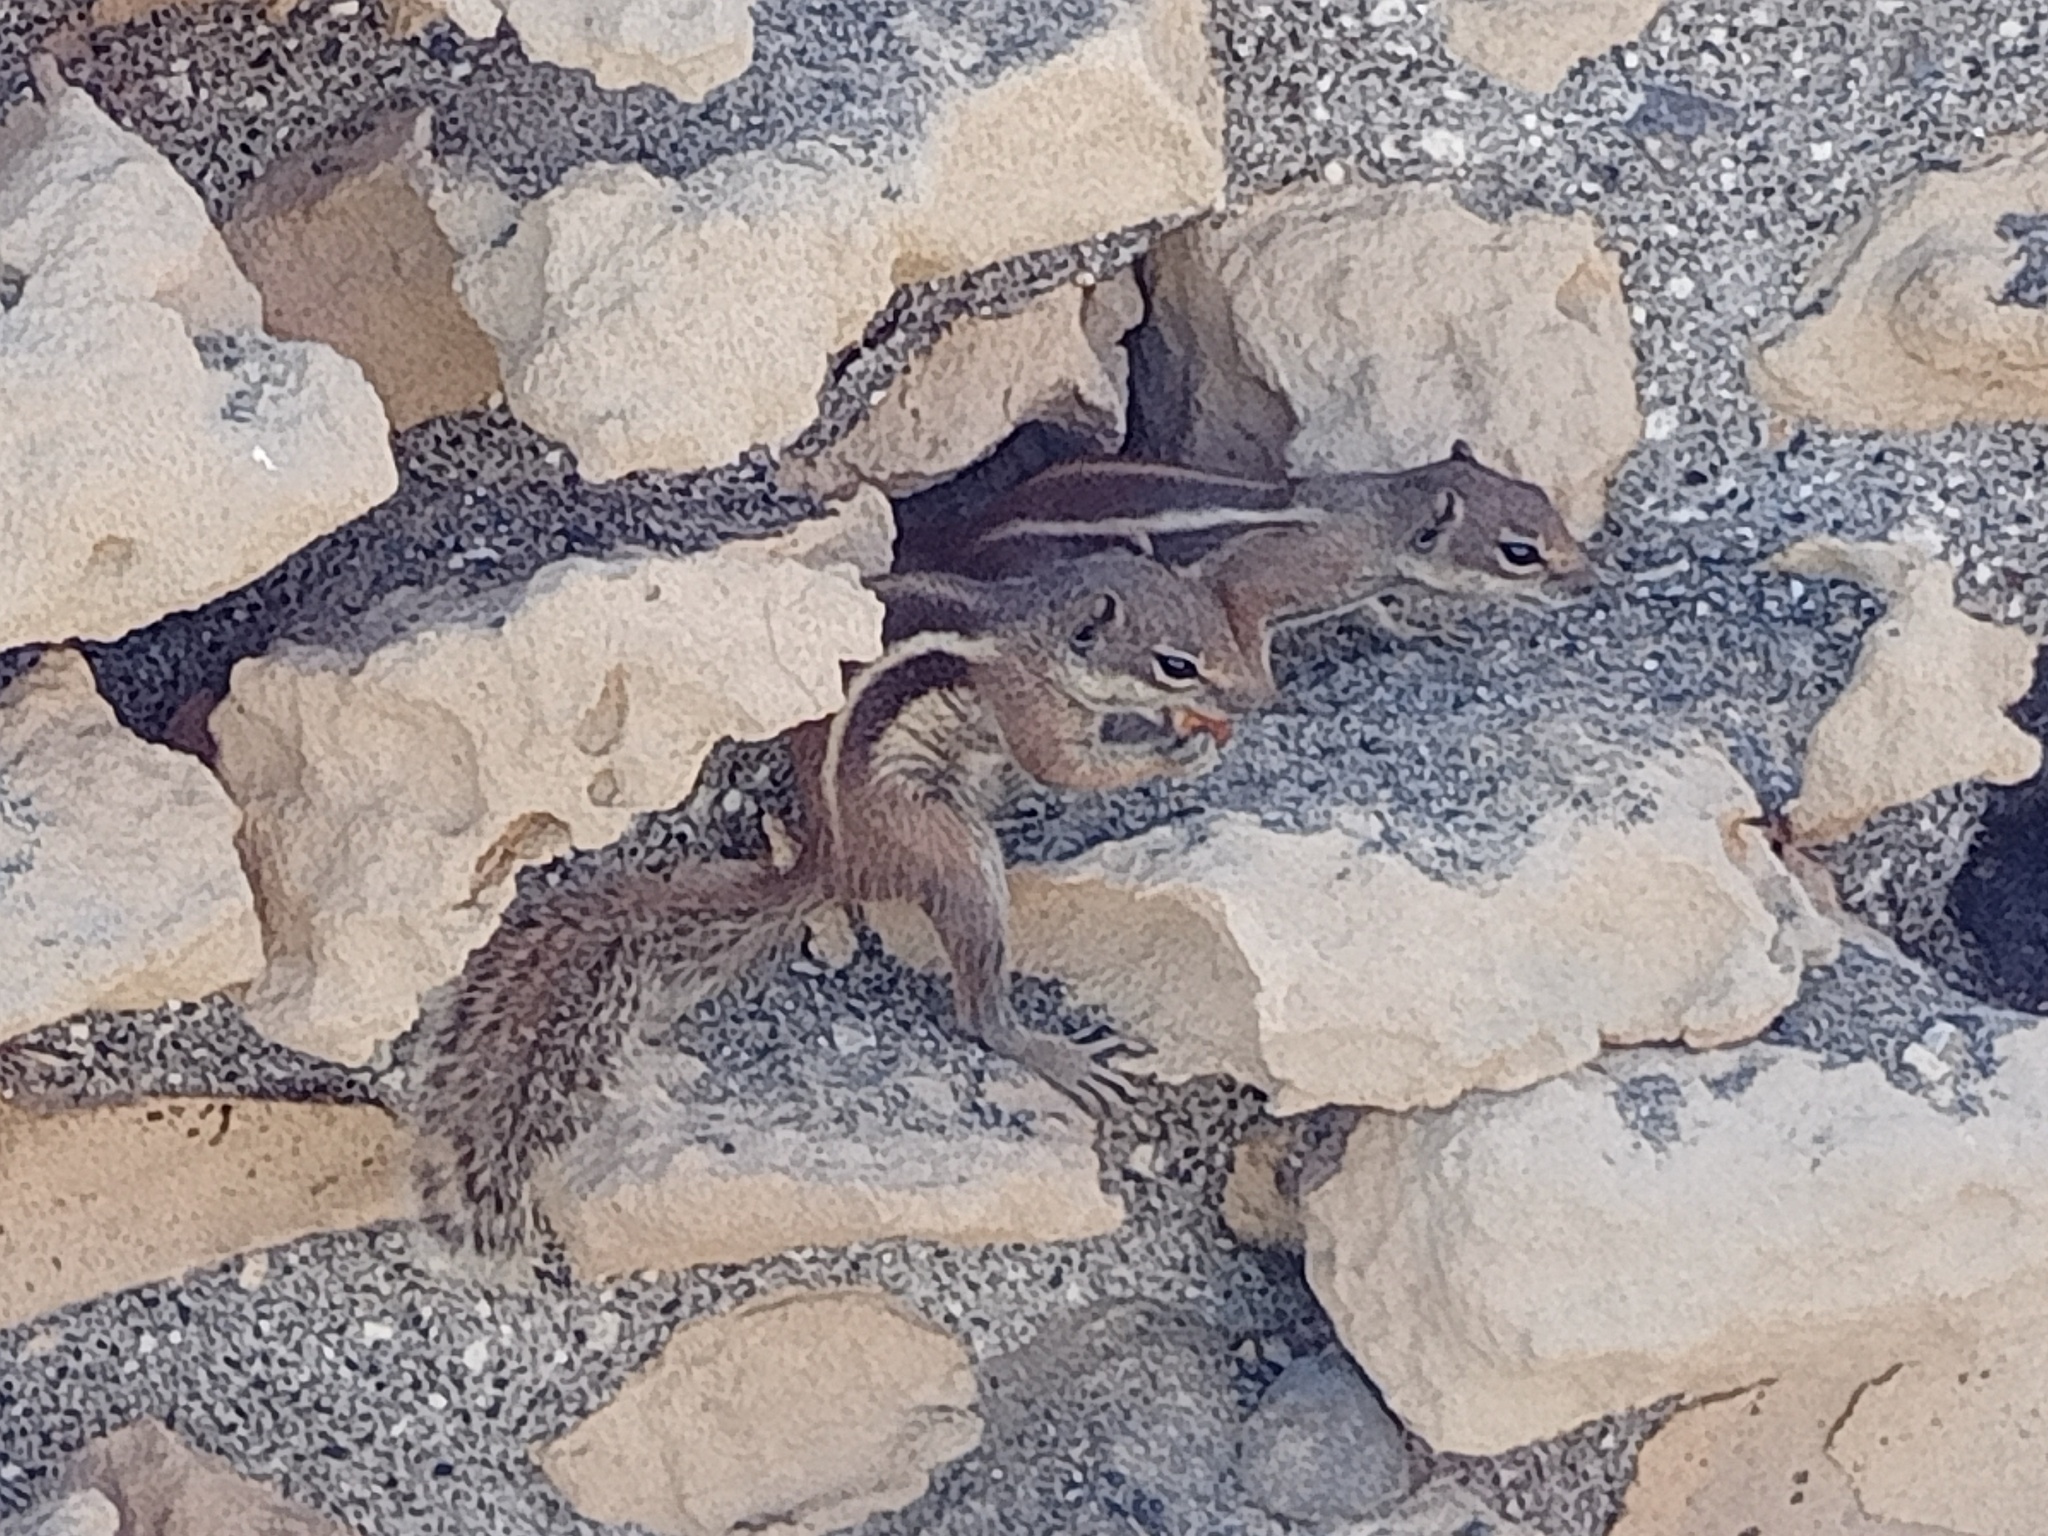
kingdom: Animalia
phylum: Chordata
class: Mammalia
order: Rodentia
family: Sciuridae
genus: Atlantoxerus
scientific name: Atlantoxerus getulus
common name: Barbary ground squirrel
